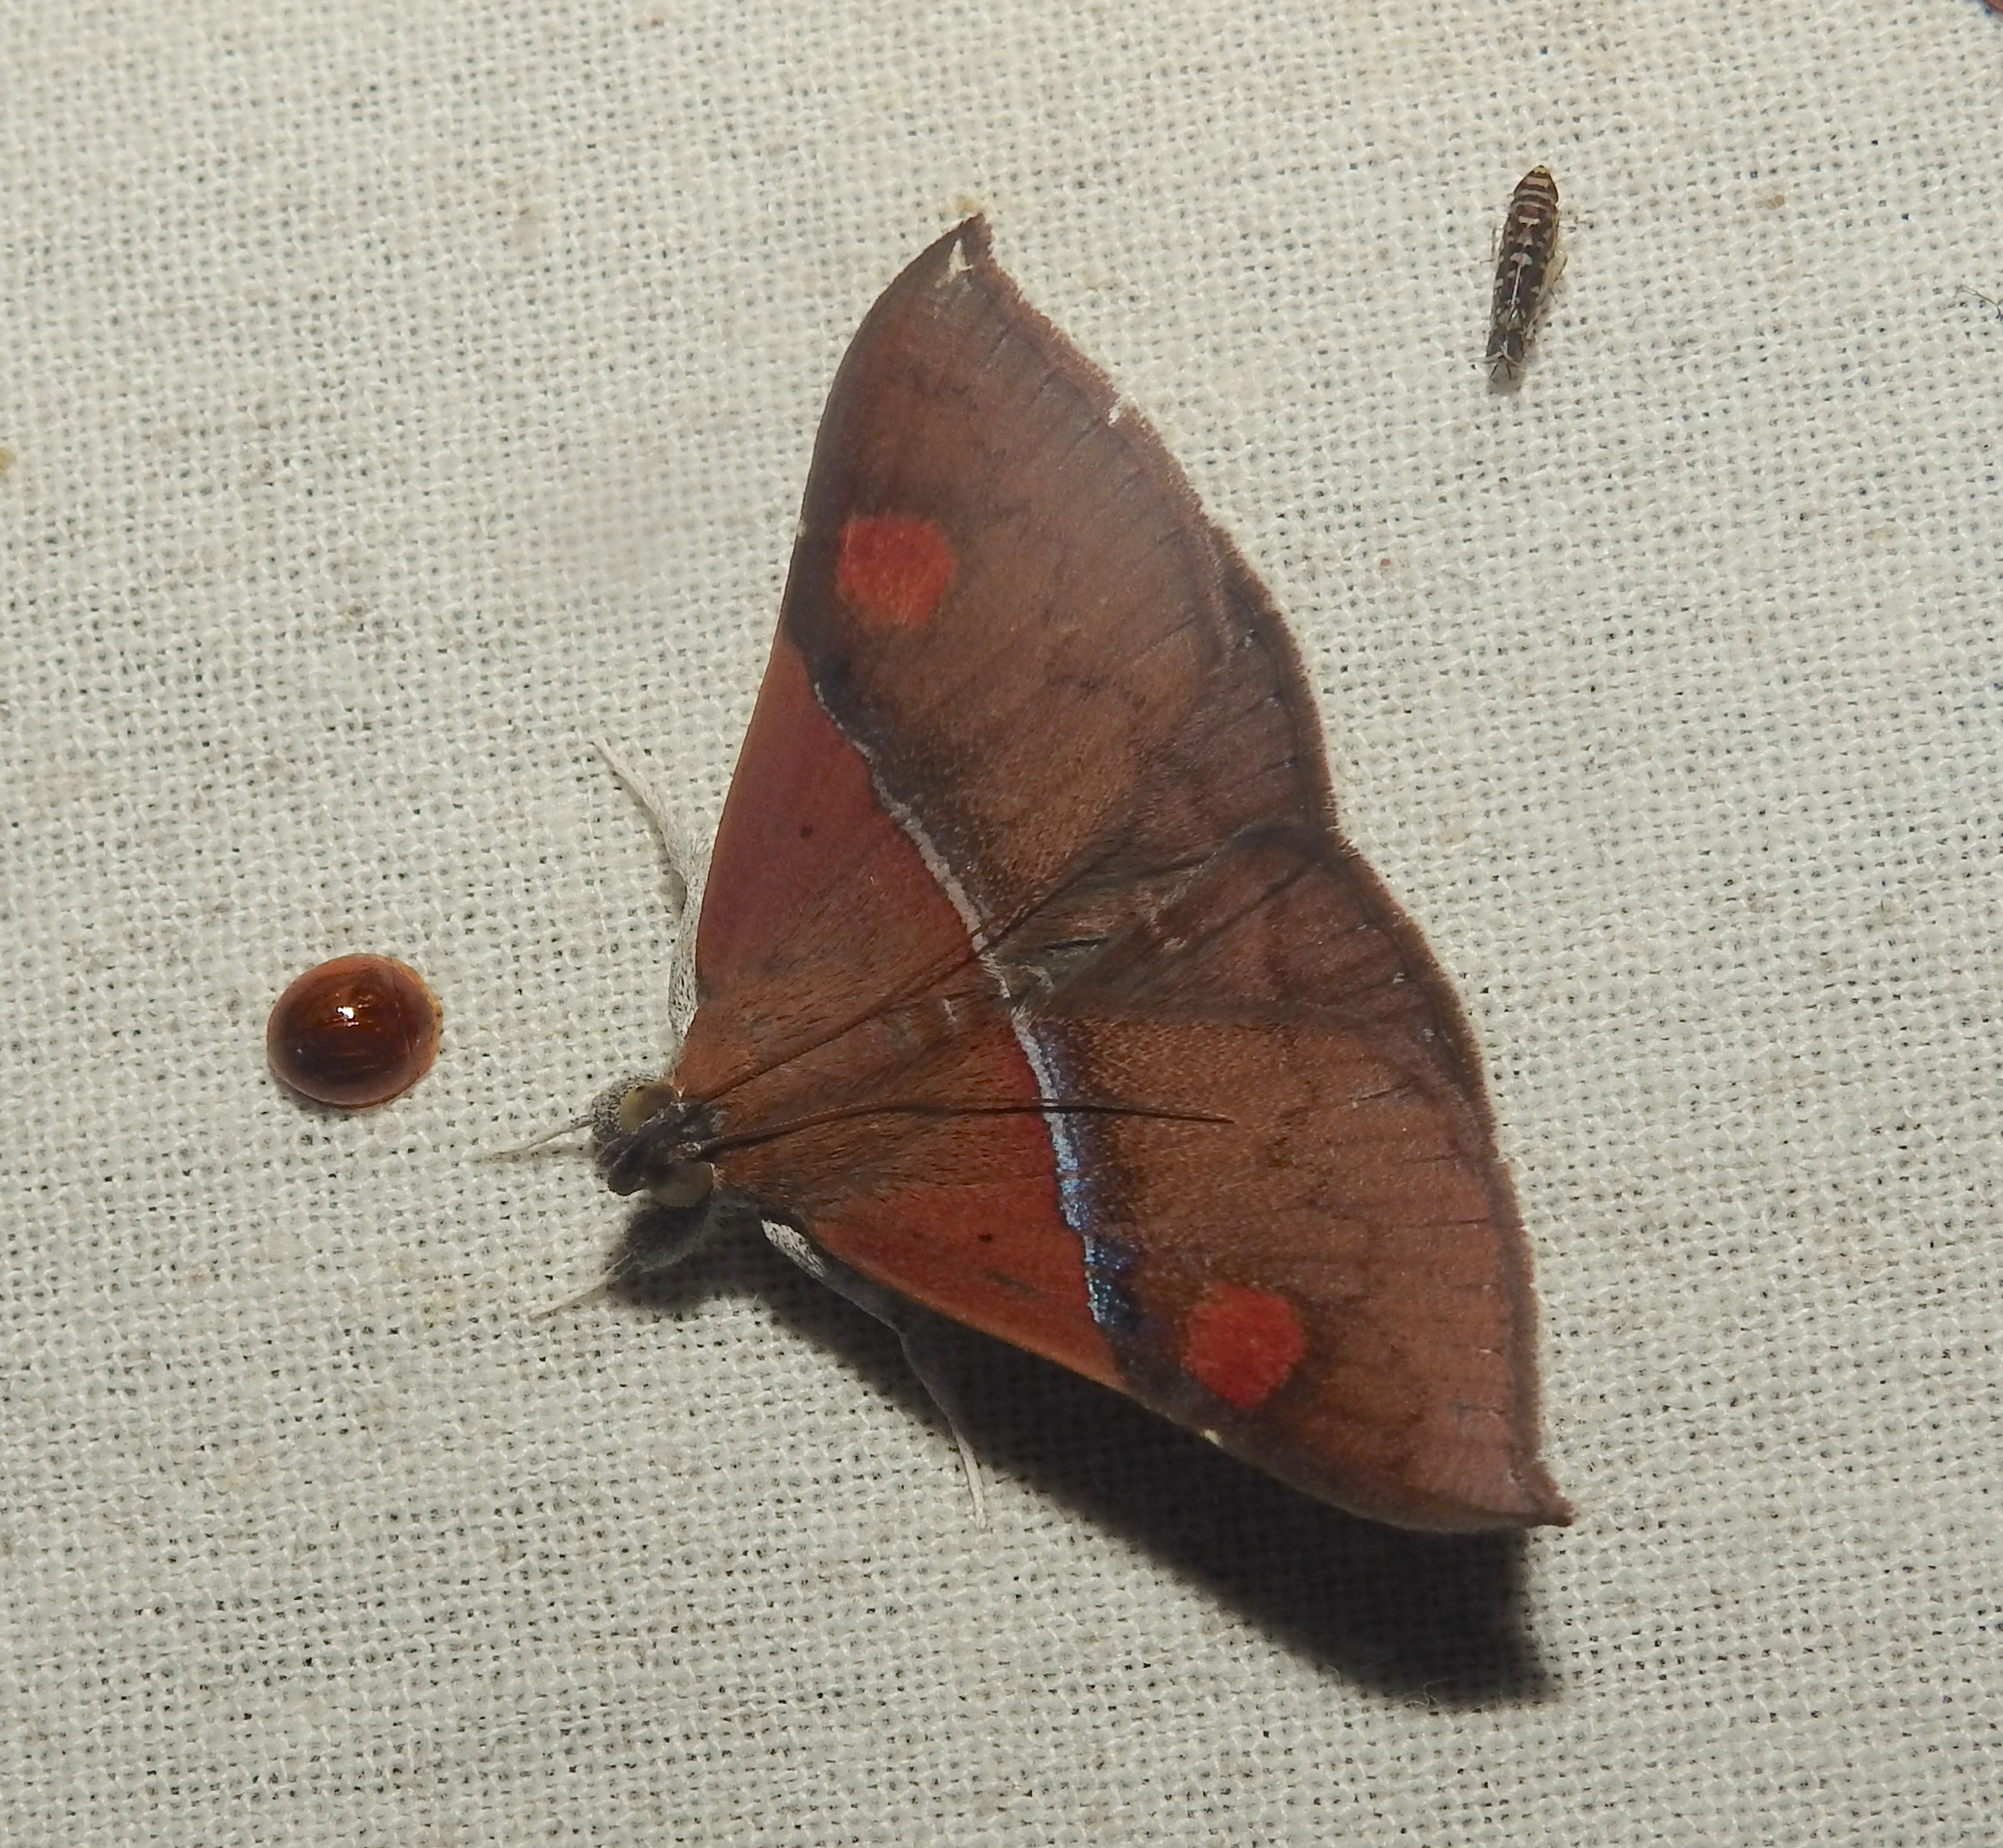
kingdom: Animalia
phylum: Arthropoda
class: Insecta
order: Lepidoptera
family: Erebidae
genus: Sympis
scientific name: Sympis rufibasis
